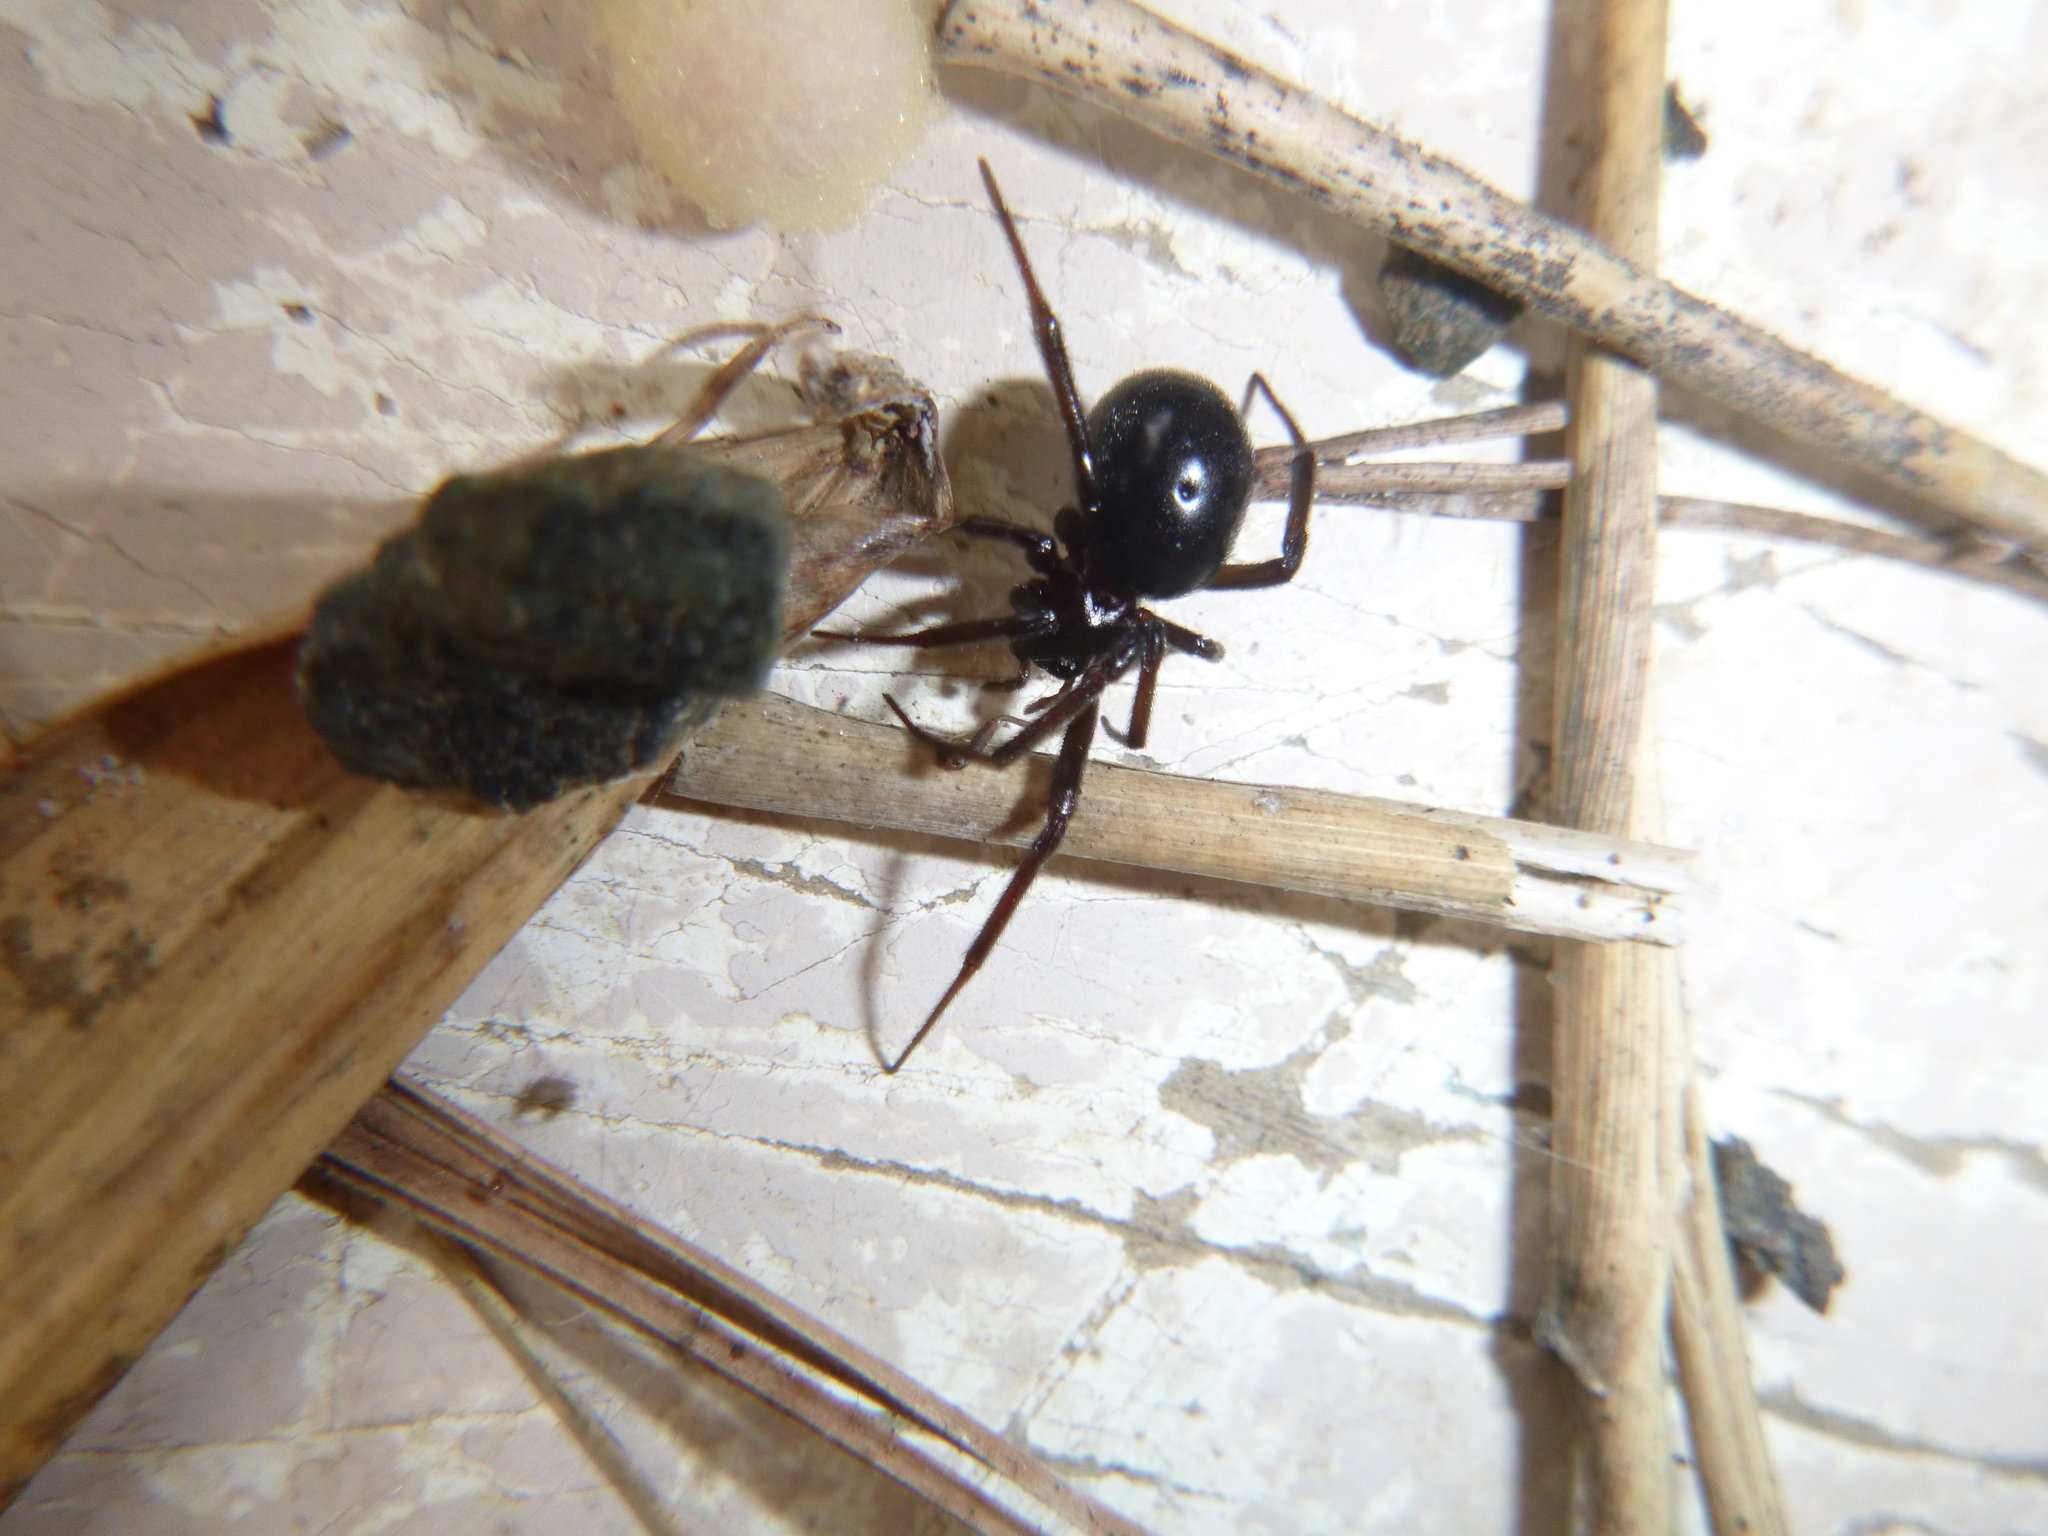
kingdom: Animalia
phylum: Arthropoda
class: Arachnida
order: Araneae
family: Theridiidae
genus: Steatoda
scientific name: Steatoda capensis
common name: Cobweb weaver
